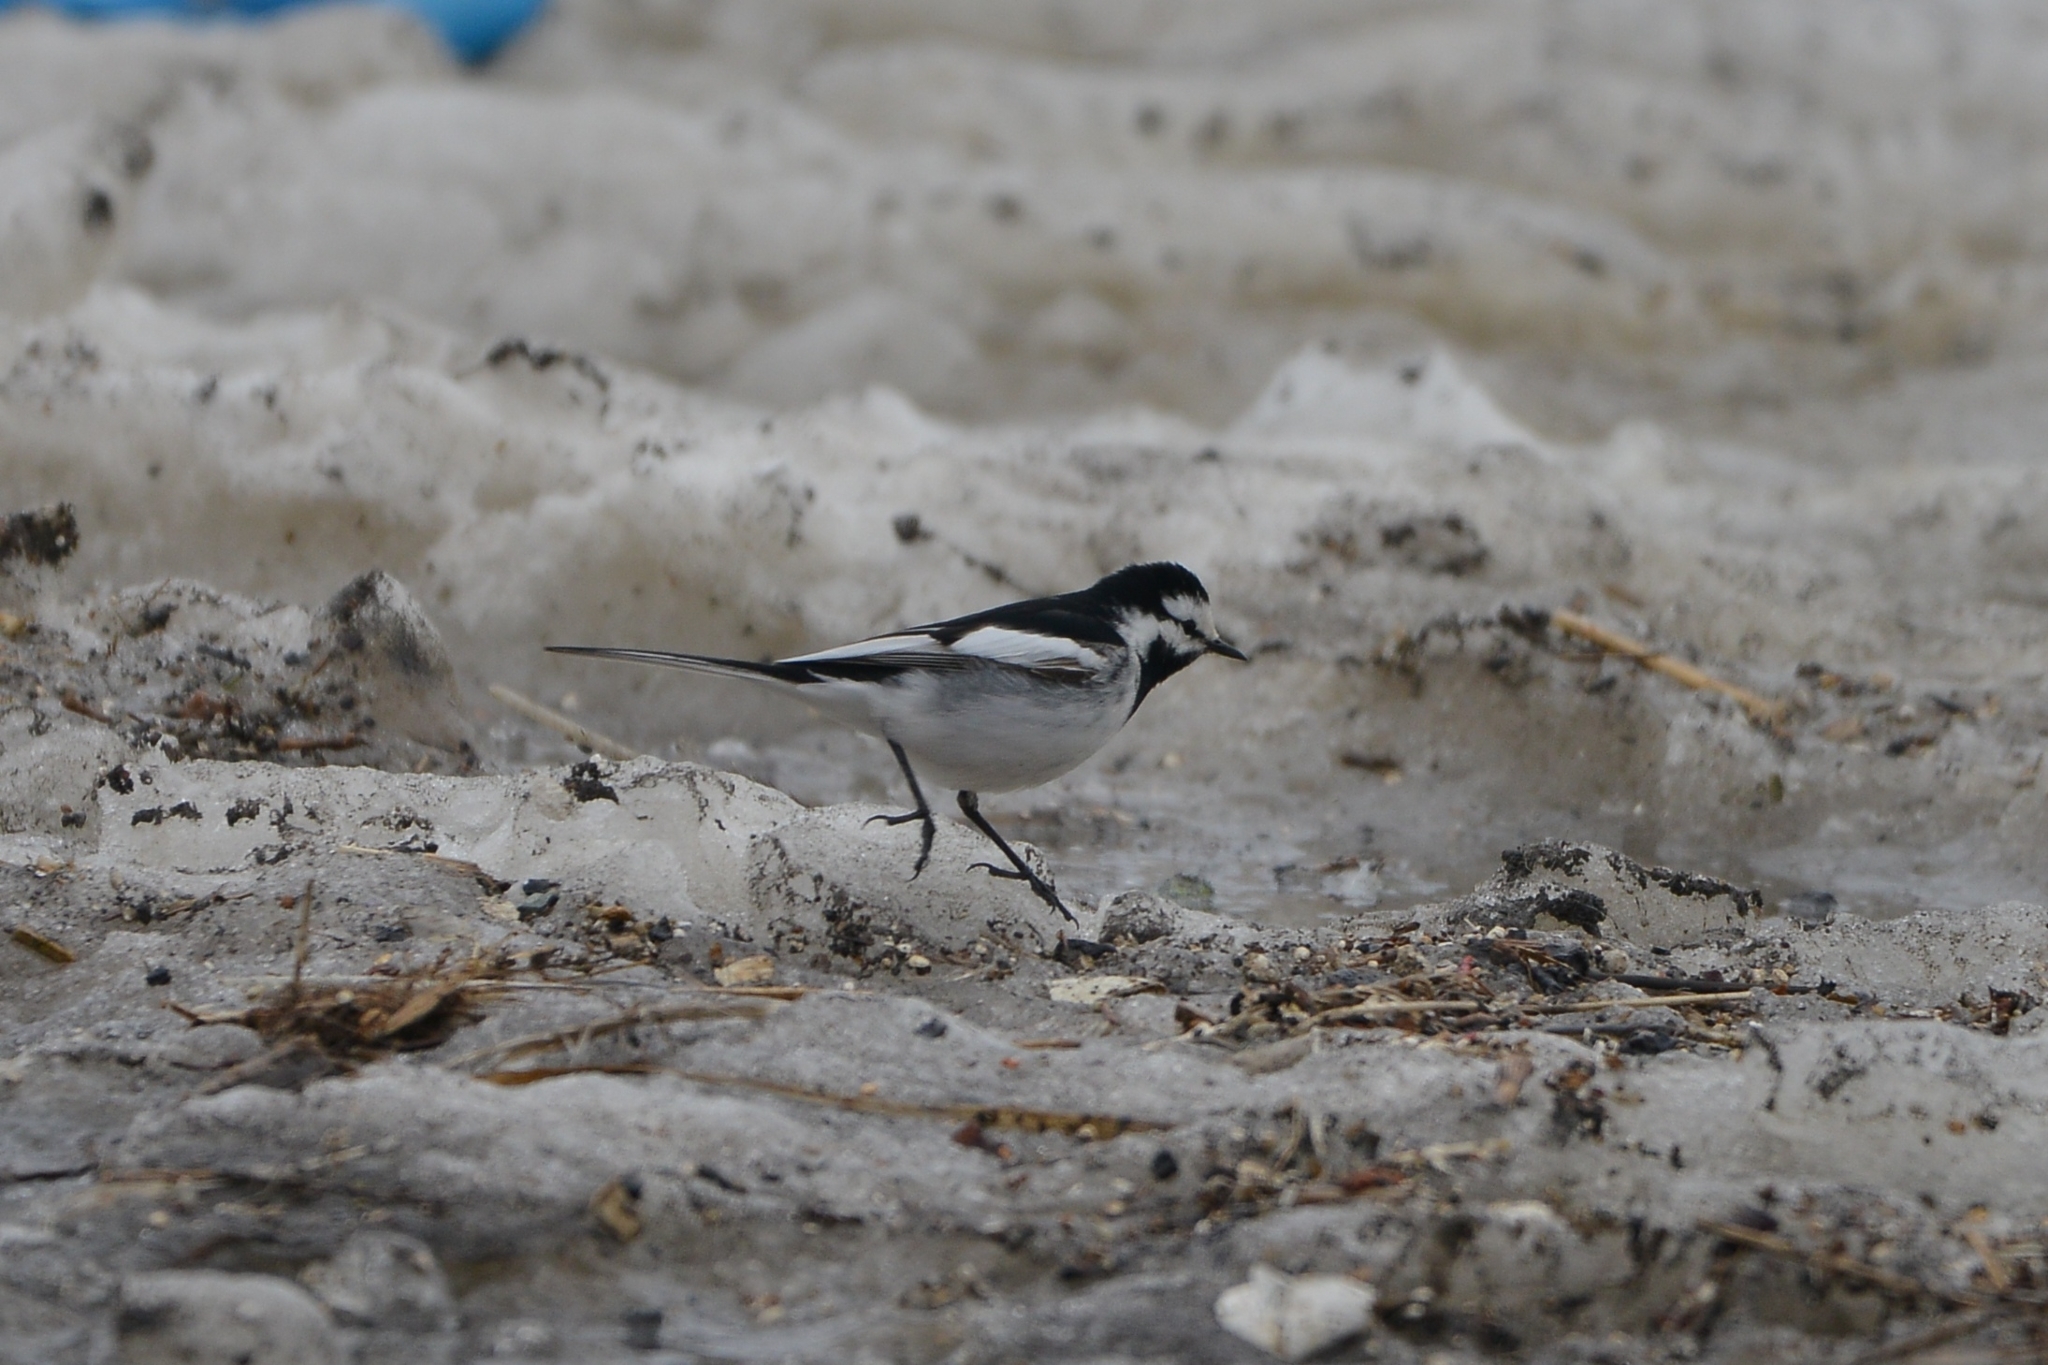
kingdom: Animalia
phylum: Chordata
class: Aves
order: Passeriformes
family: Motacillidae
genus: Motacilla
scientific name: Motacilla alba
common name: White wagtail
